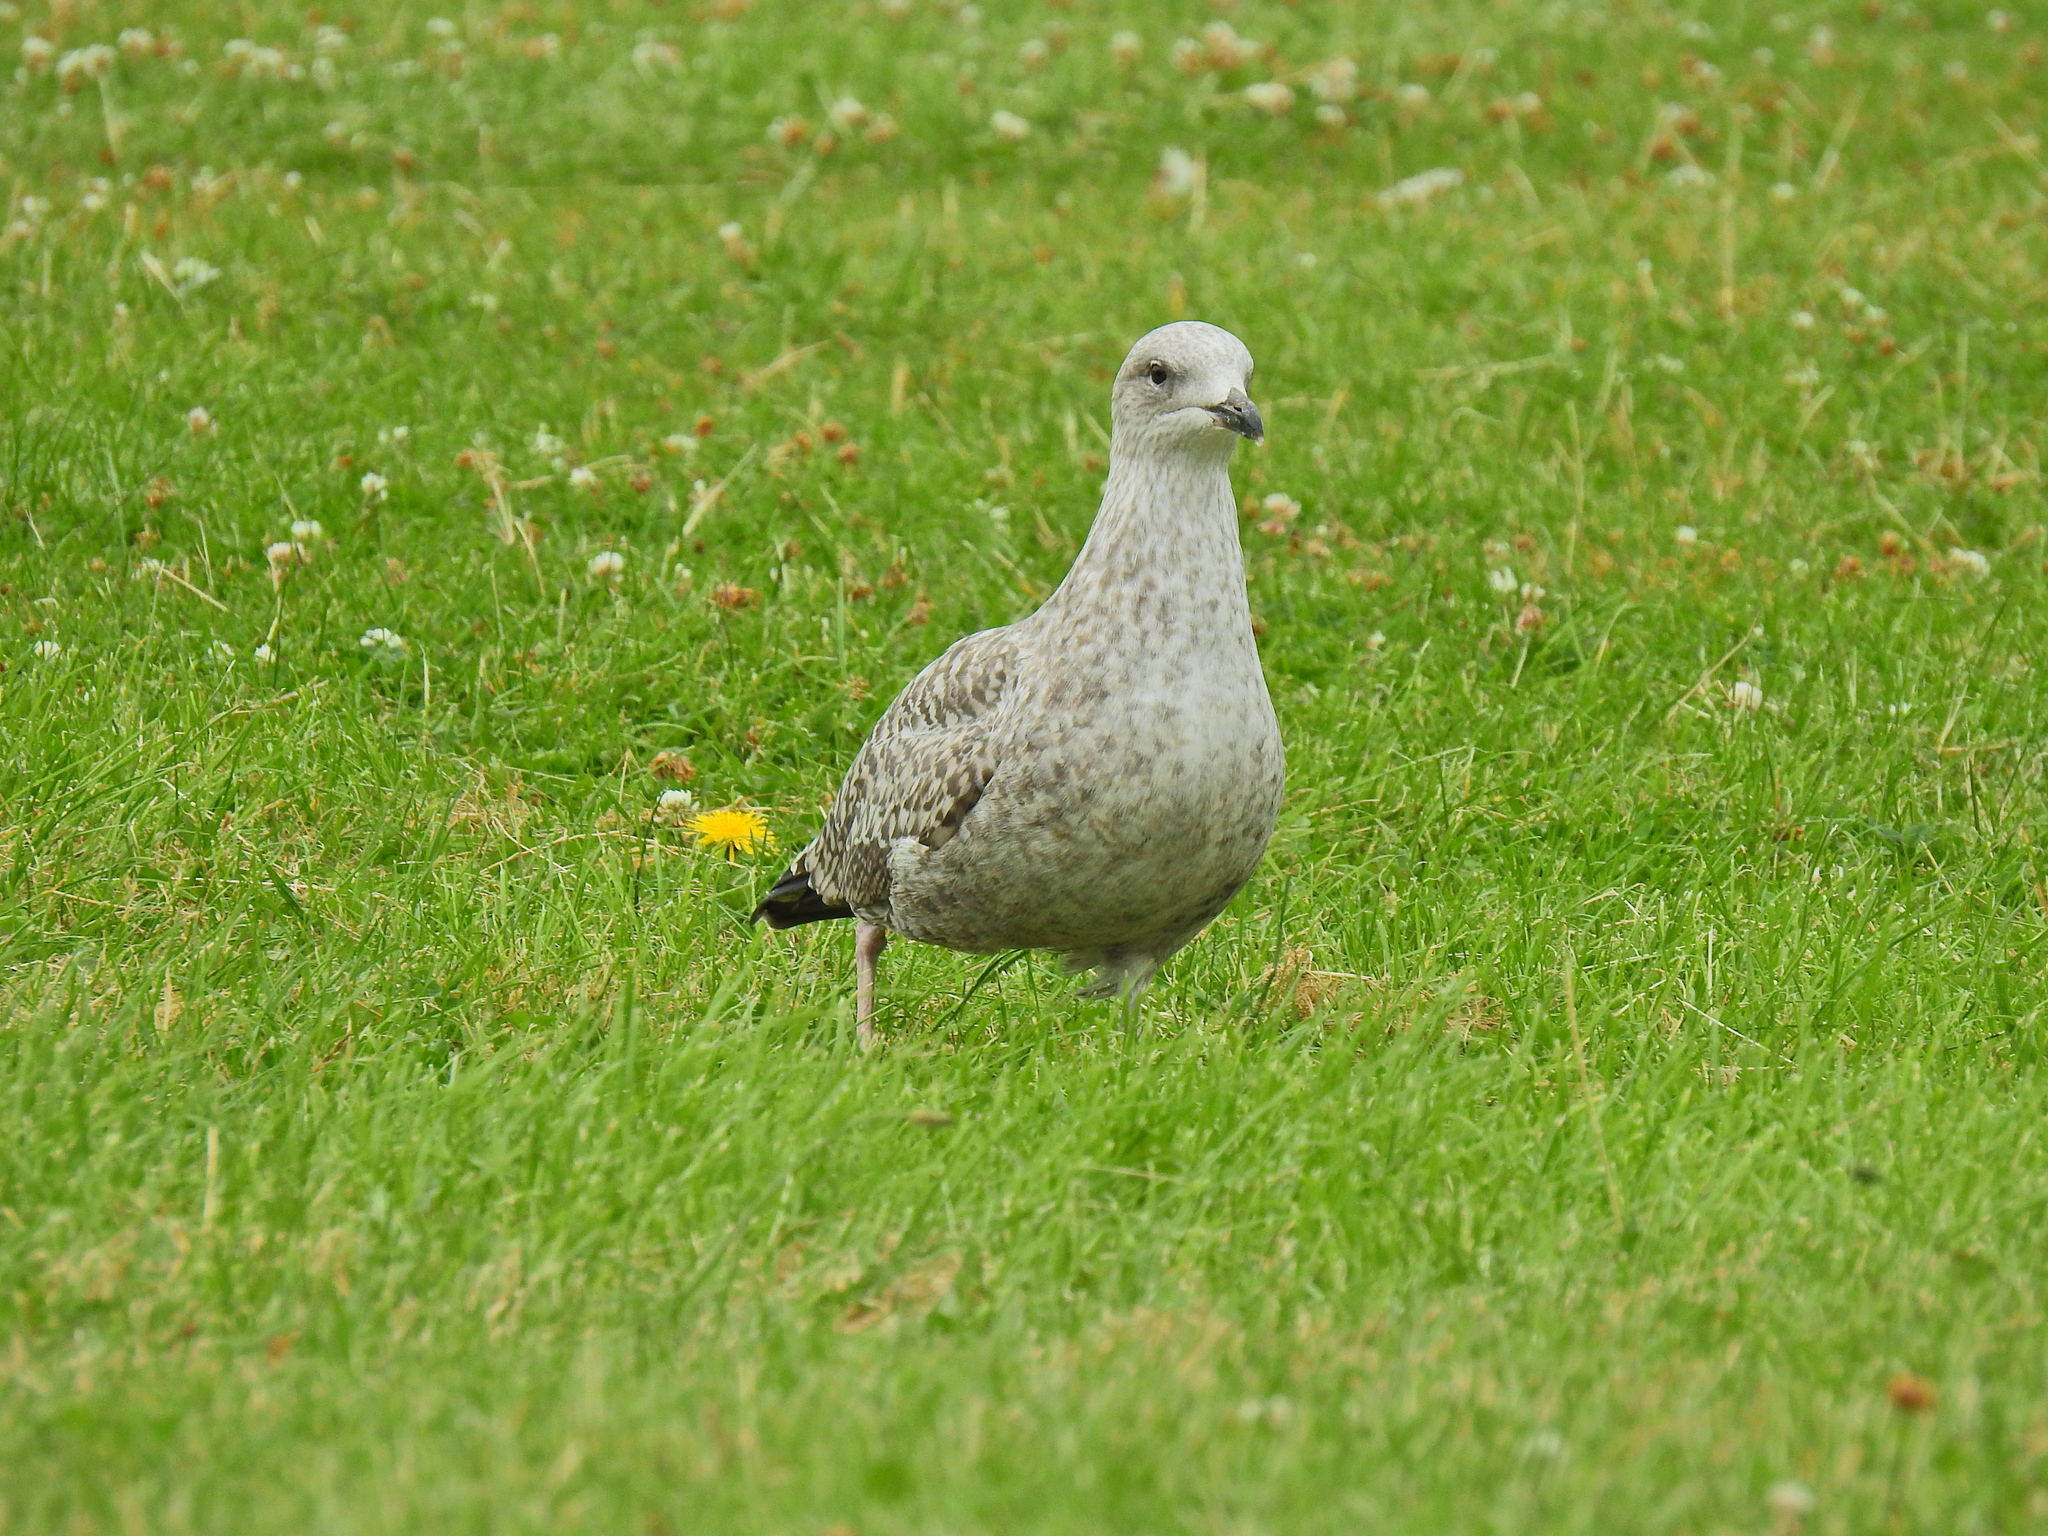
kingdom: Animalia
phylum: Chordata
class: Aves
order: Charadriiformes
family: Laridae
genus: Larus
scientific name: Larus argentatus
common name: Herring gull
